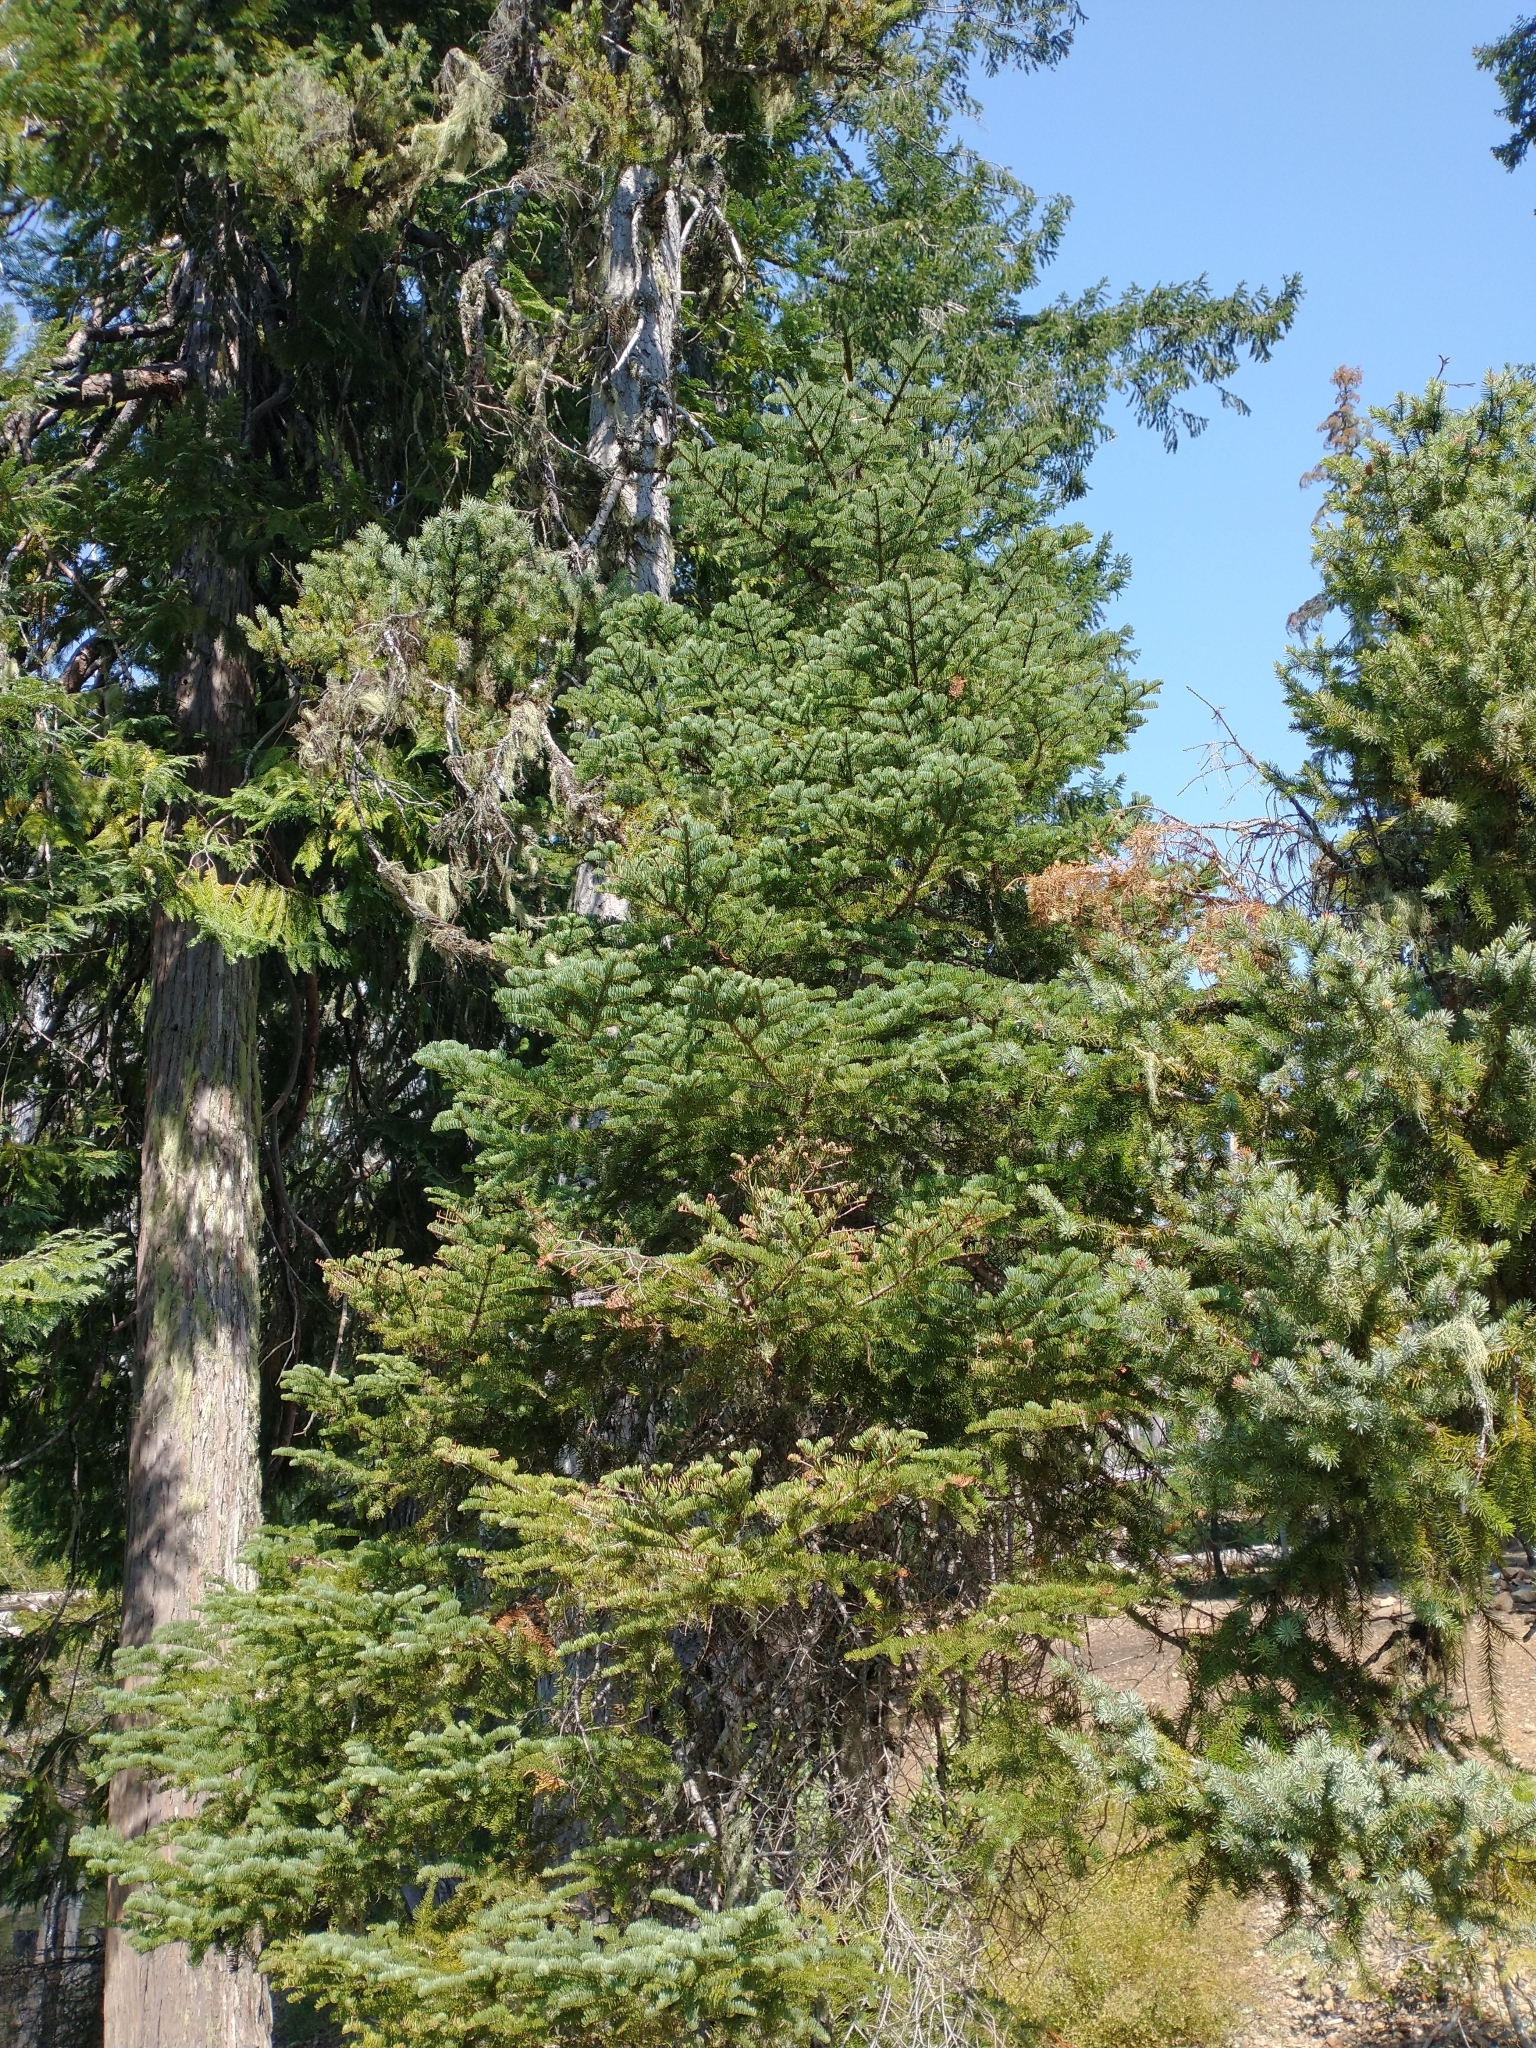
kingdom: Plantae
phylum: Tracheophyta
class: Pinopsida
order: Pinales
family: Pinaceae
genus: Abies
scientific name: Abies procera
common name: Noble fir
